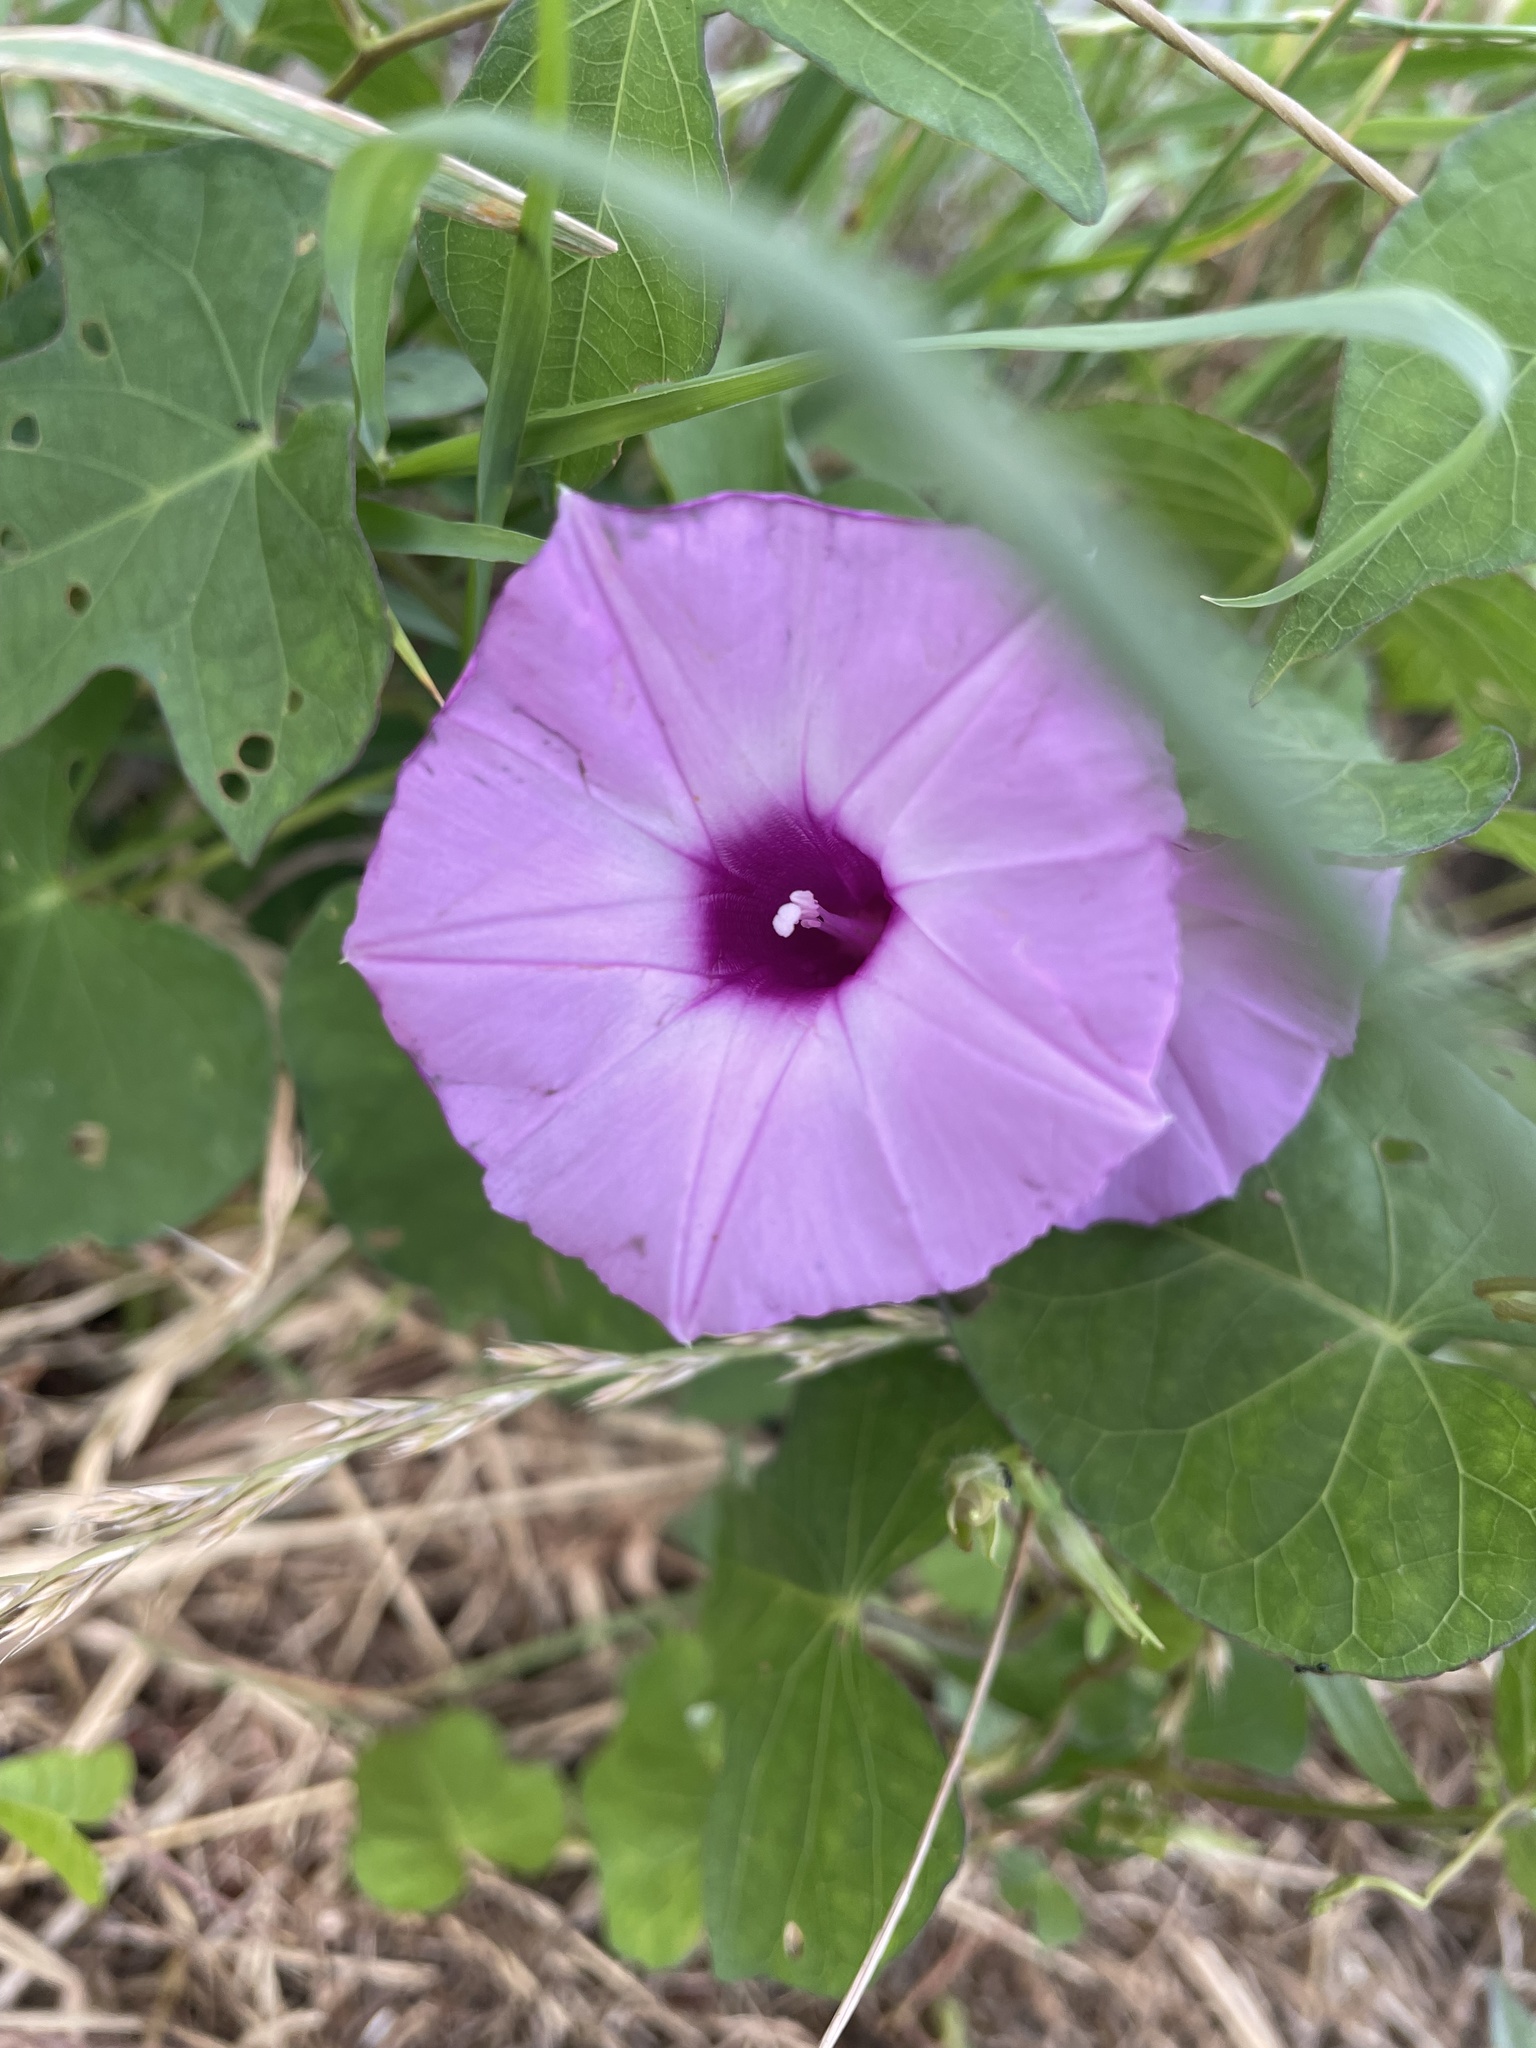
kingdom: Plantae
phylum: Tracheophyta
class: Magnoliopsida
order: Solanales
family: Convolvulaceae
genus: Ipomoea
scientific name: Ipomoea cordatotriloba
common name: Cotton morning glory
